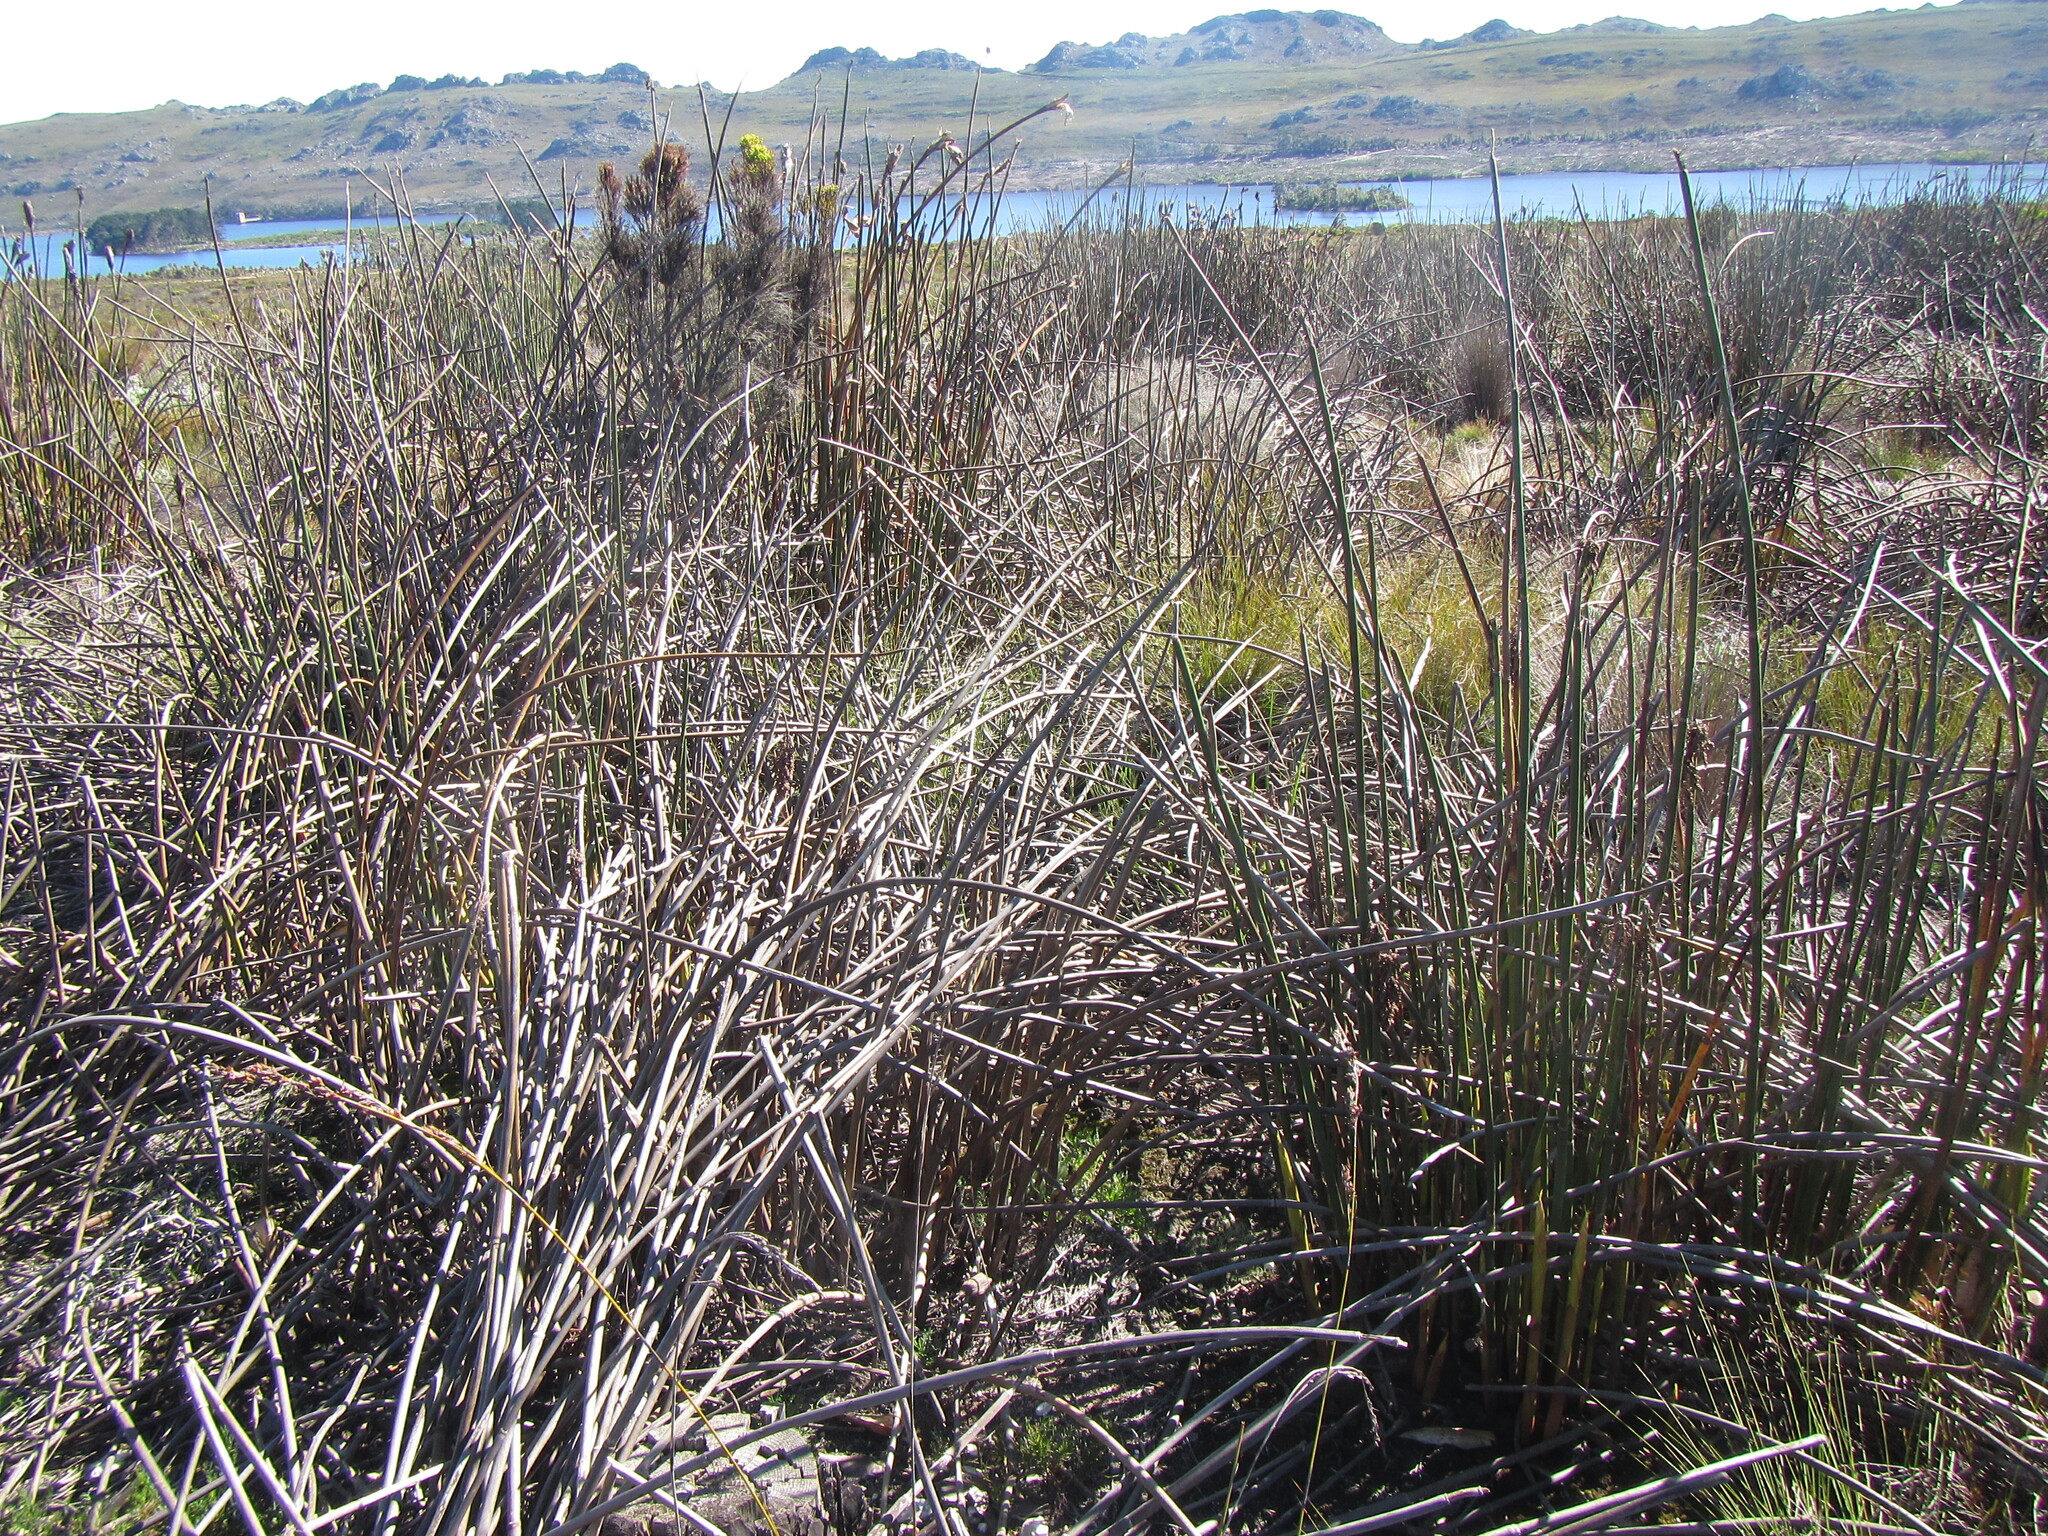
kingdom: Plantae
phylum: Tracheophyta
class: Liliopsida
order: Poales
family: Restionaceae
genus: Elegia
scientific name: Elegia mucronata
